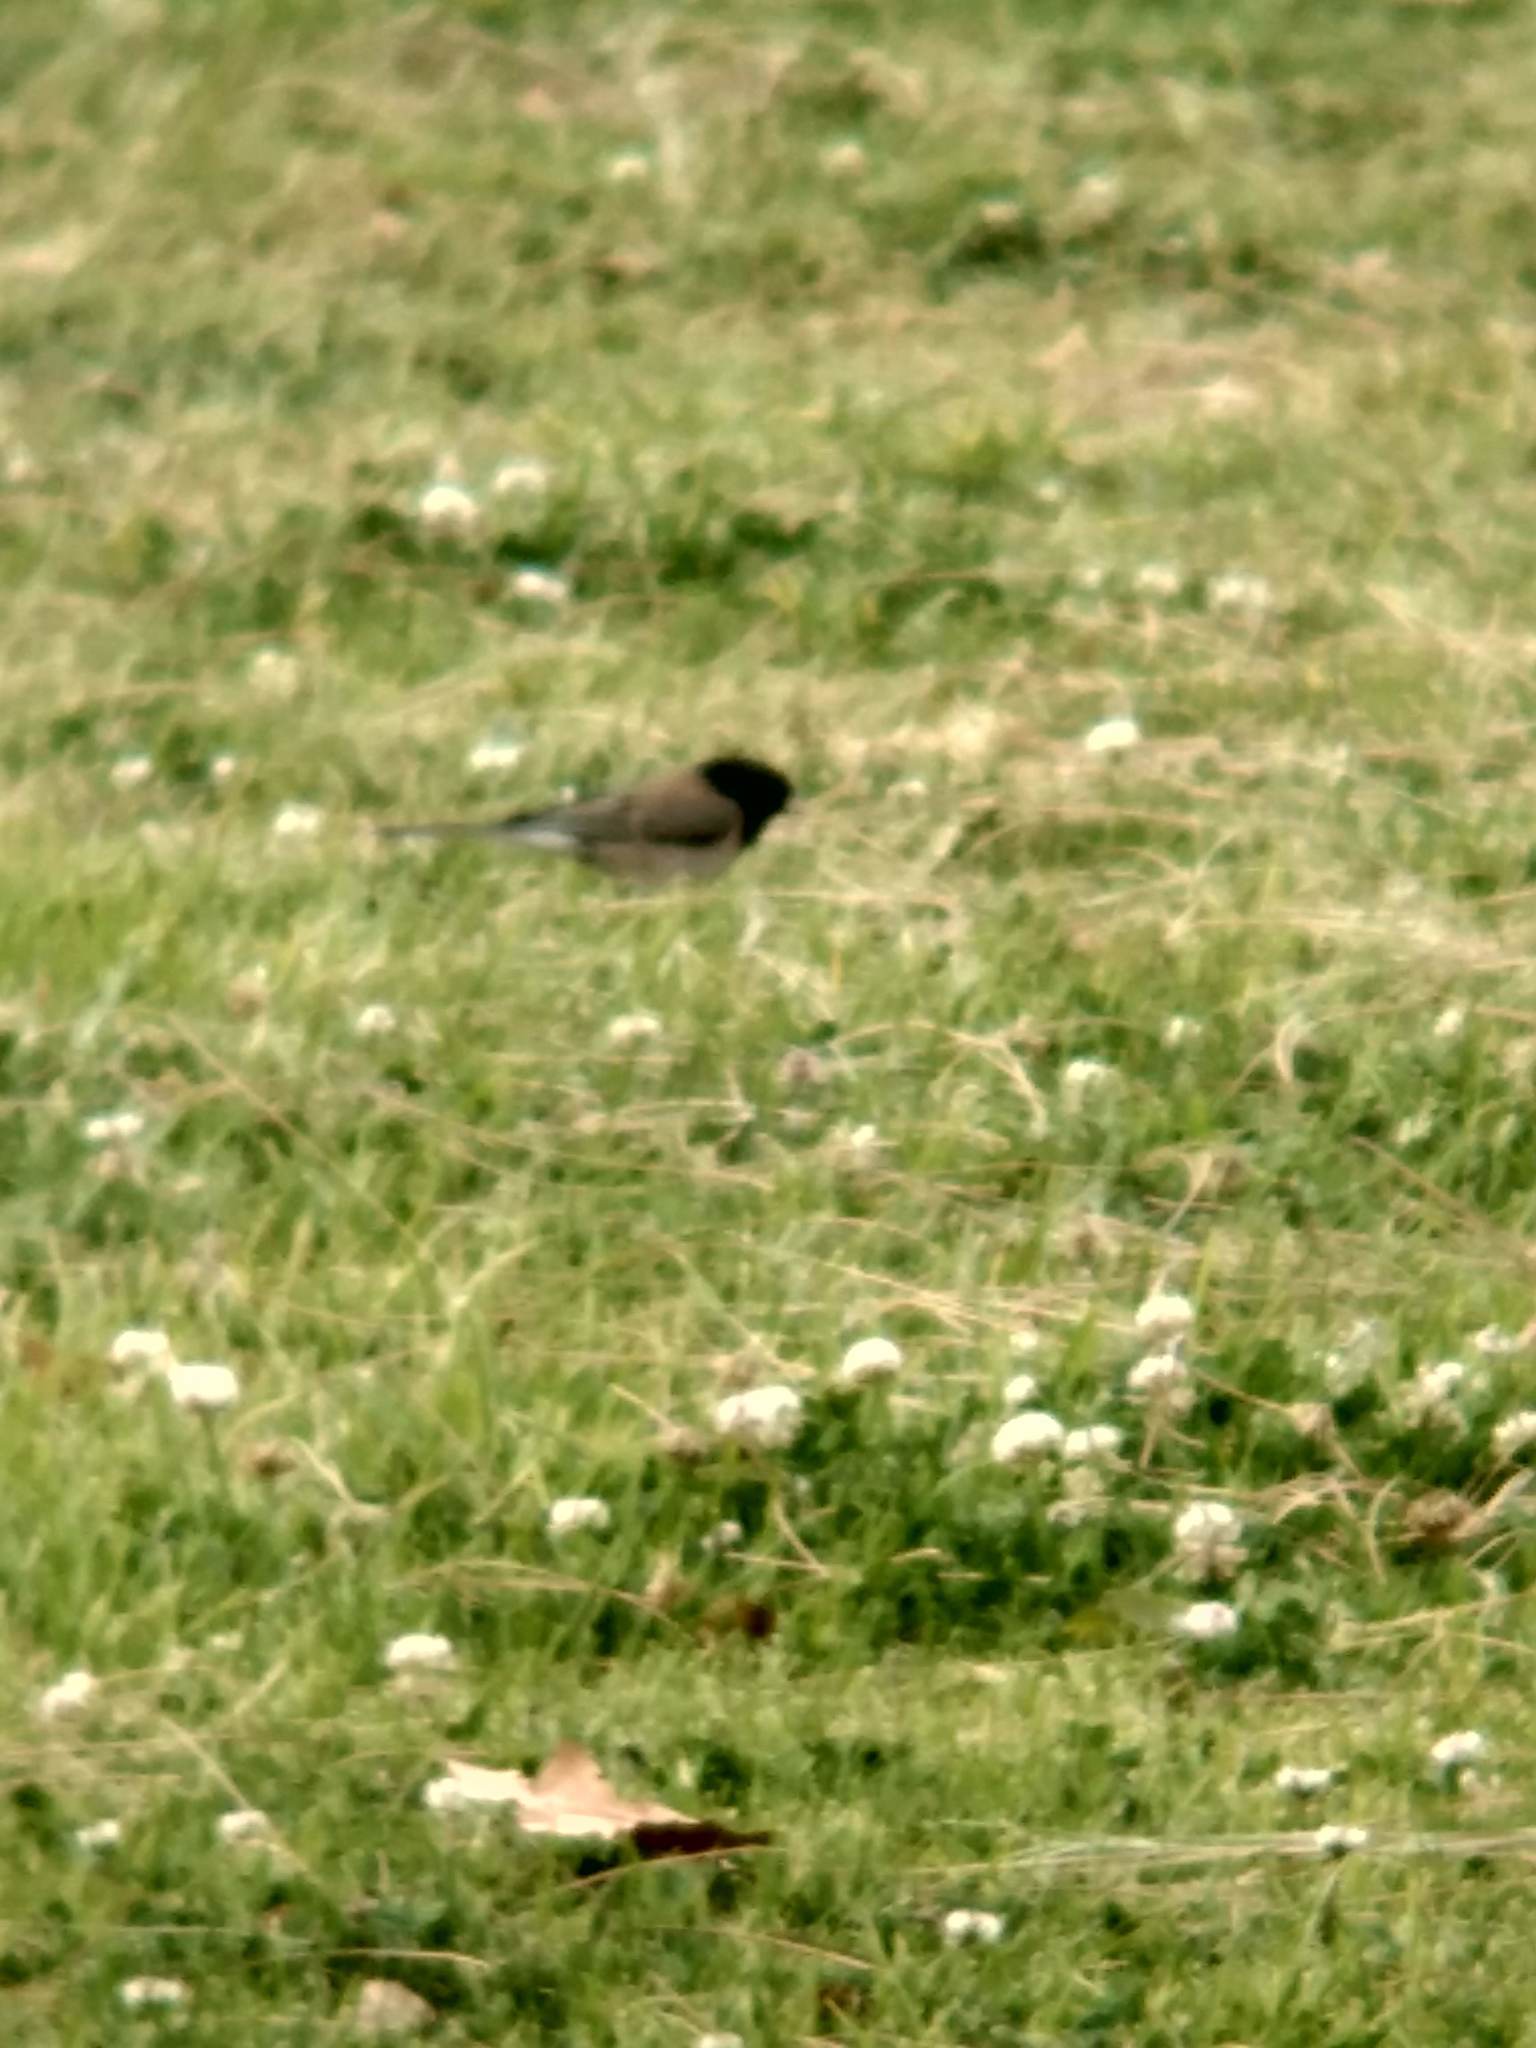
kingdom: Animalia
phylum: Chordata
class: Aves
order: Passeriformes
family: Passerellidae
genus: Junco
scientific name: Junco hyemalis
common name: Dark-eyed junco
